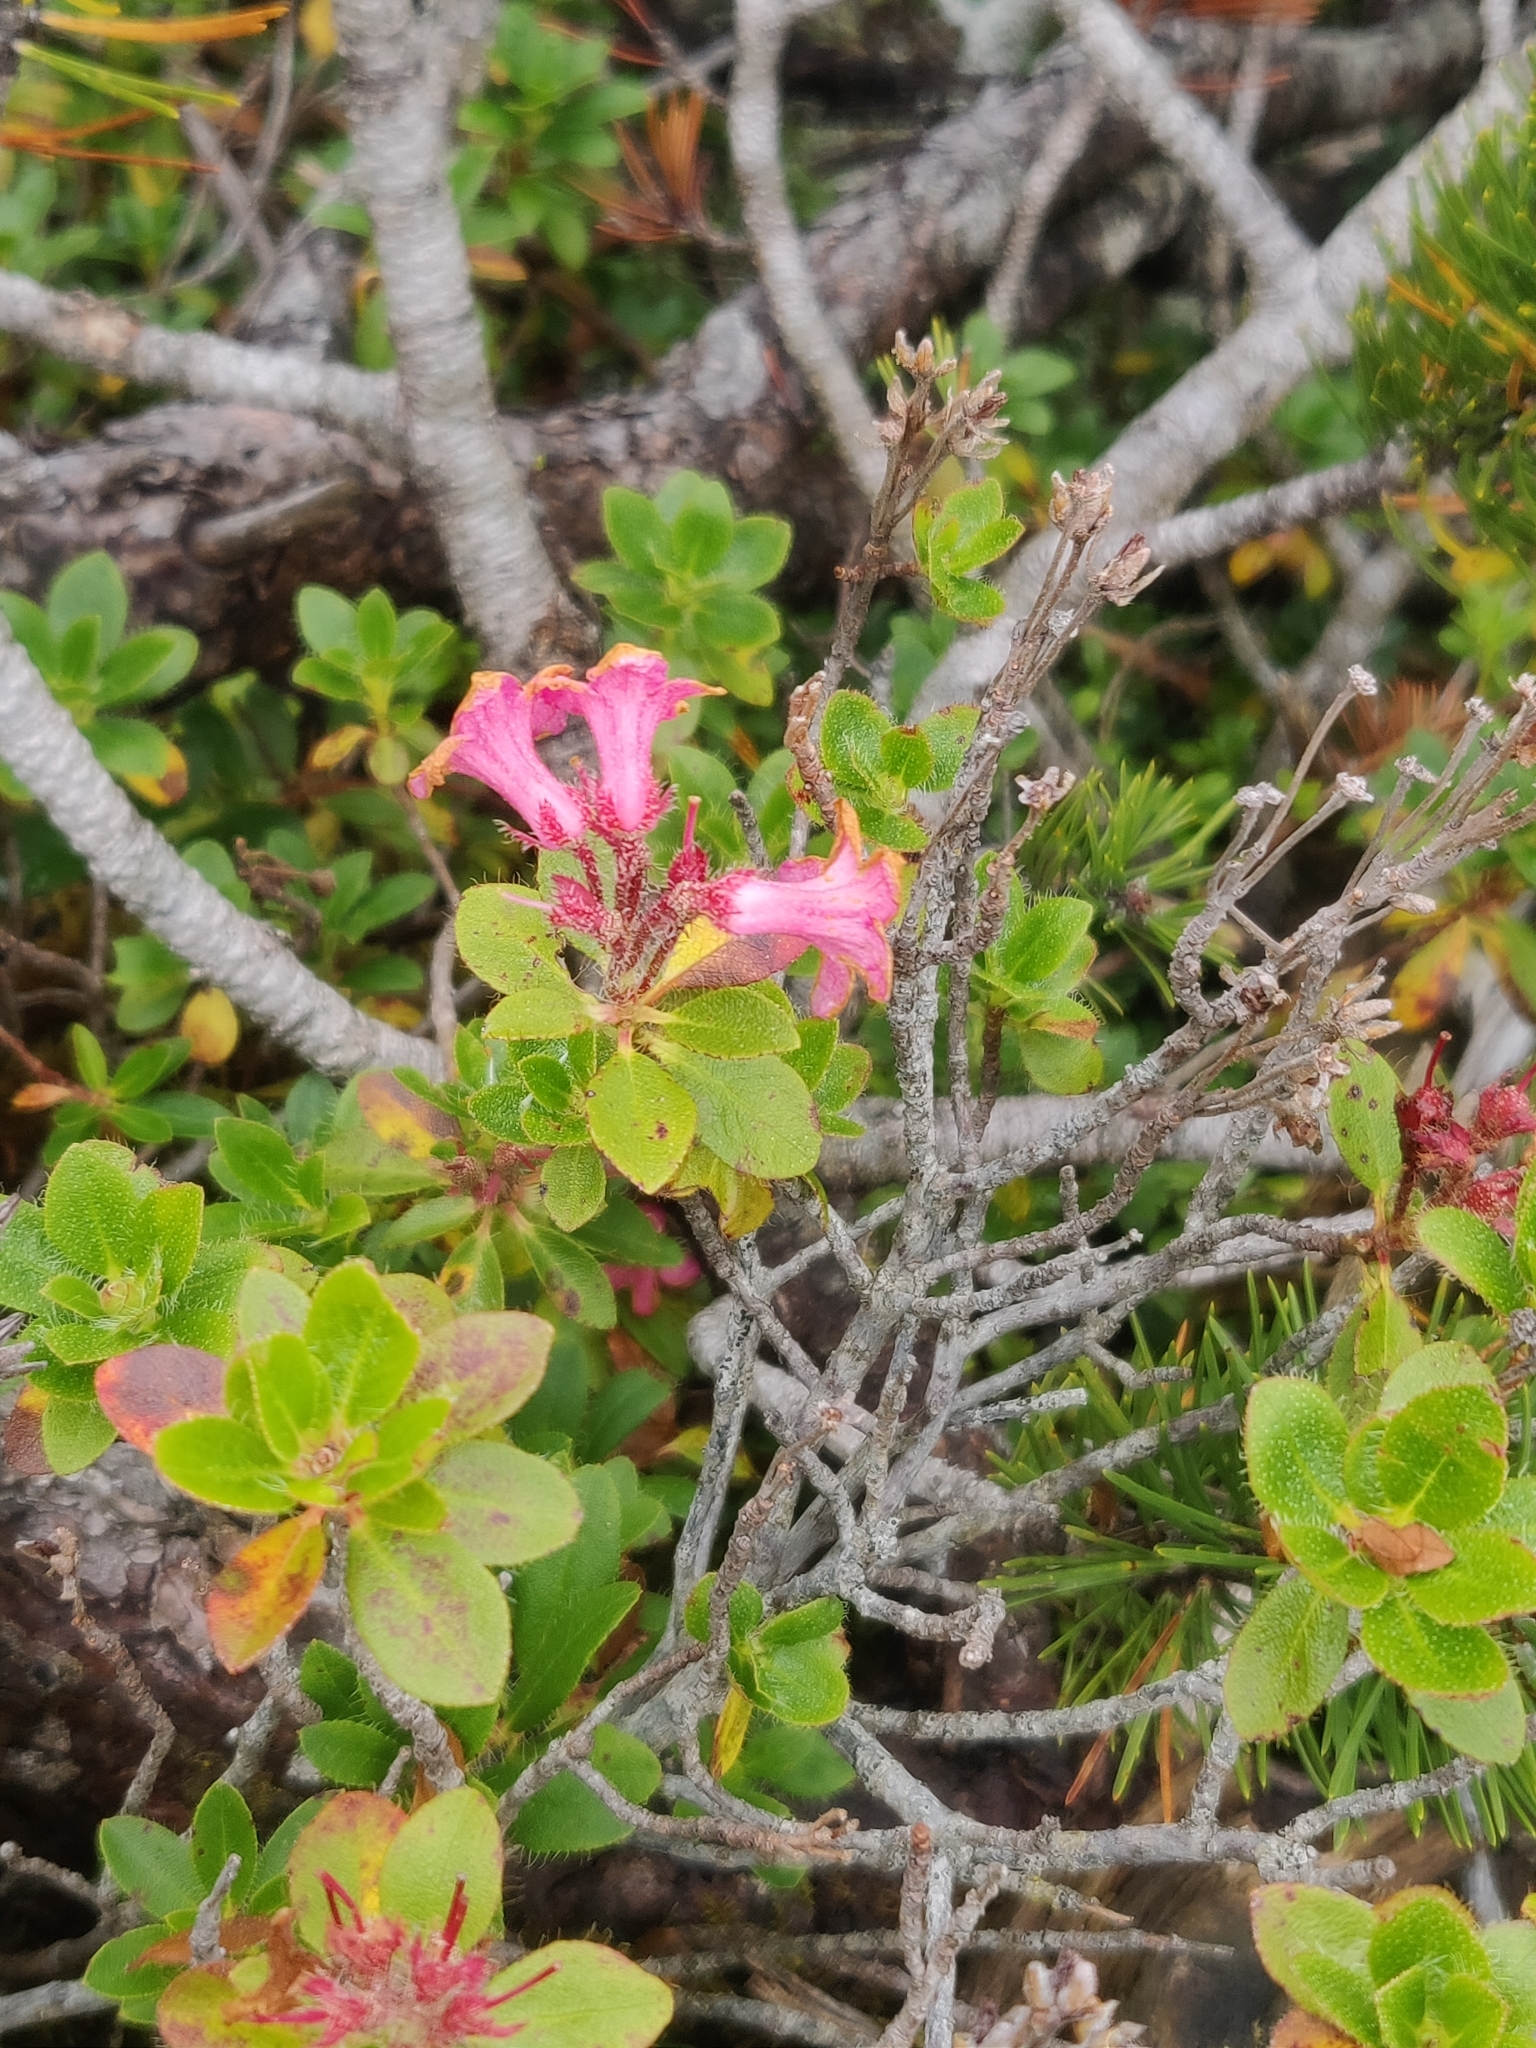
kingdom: Plantae
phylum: Tracheophyta
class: Magnoliopsida
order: Ericales
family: Ericaceae
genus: Rhododendron
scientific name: Rhododendron hirsutum
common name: Hairy alpenrose
